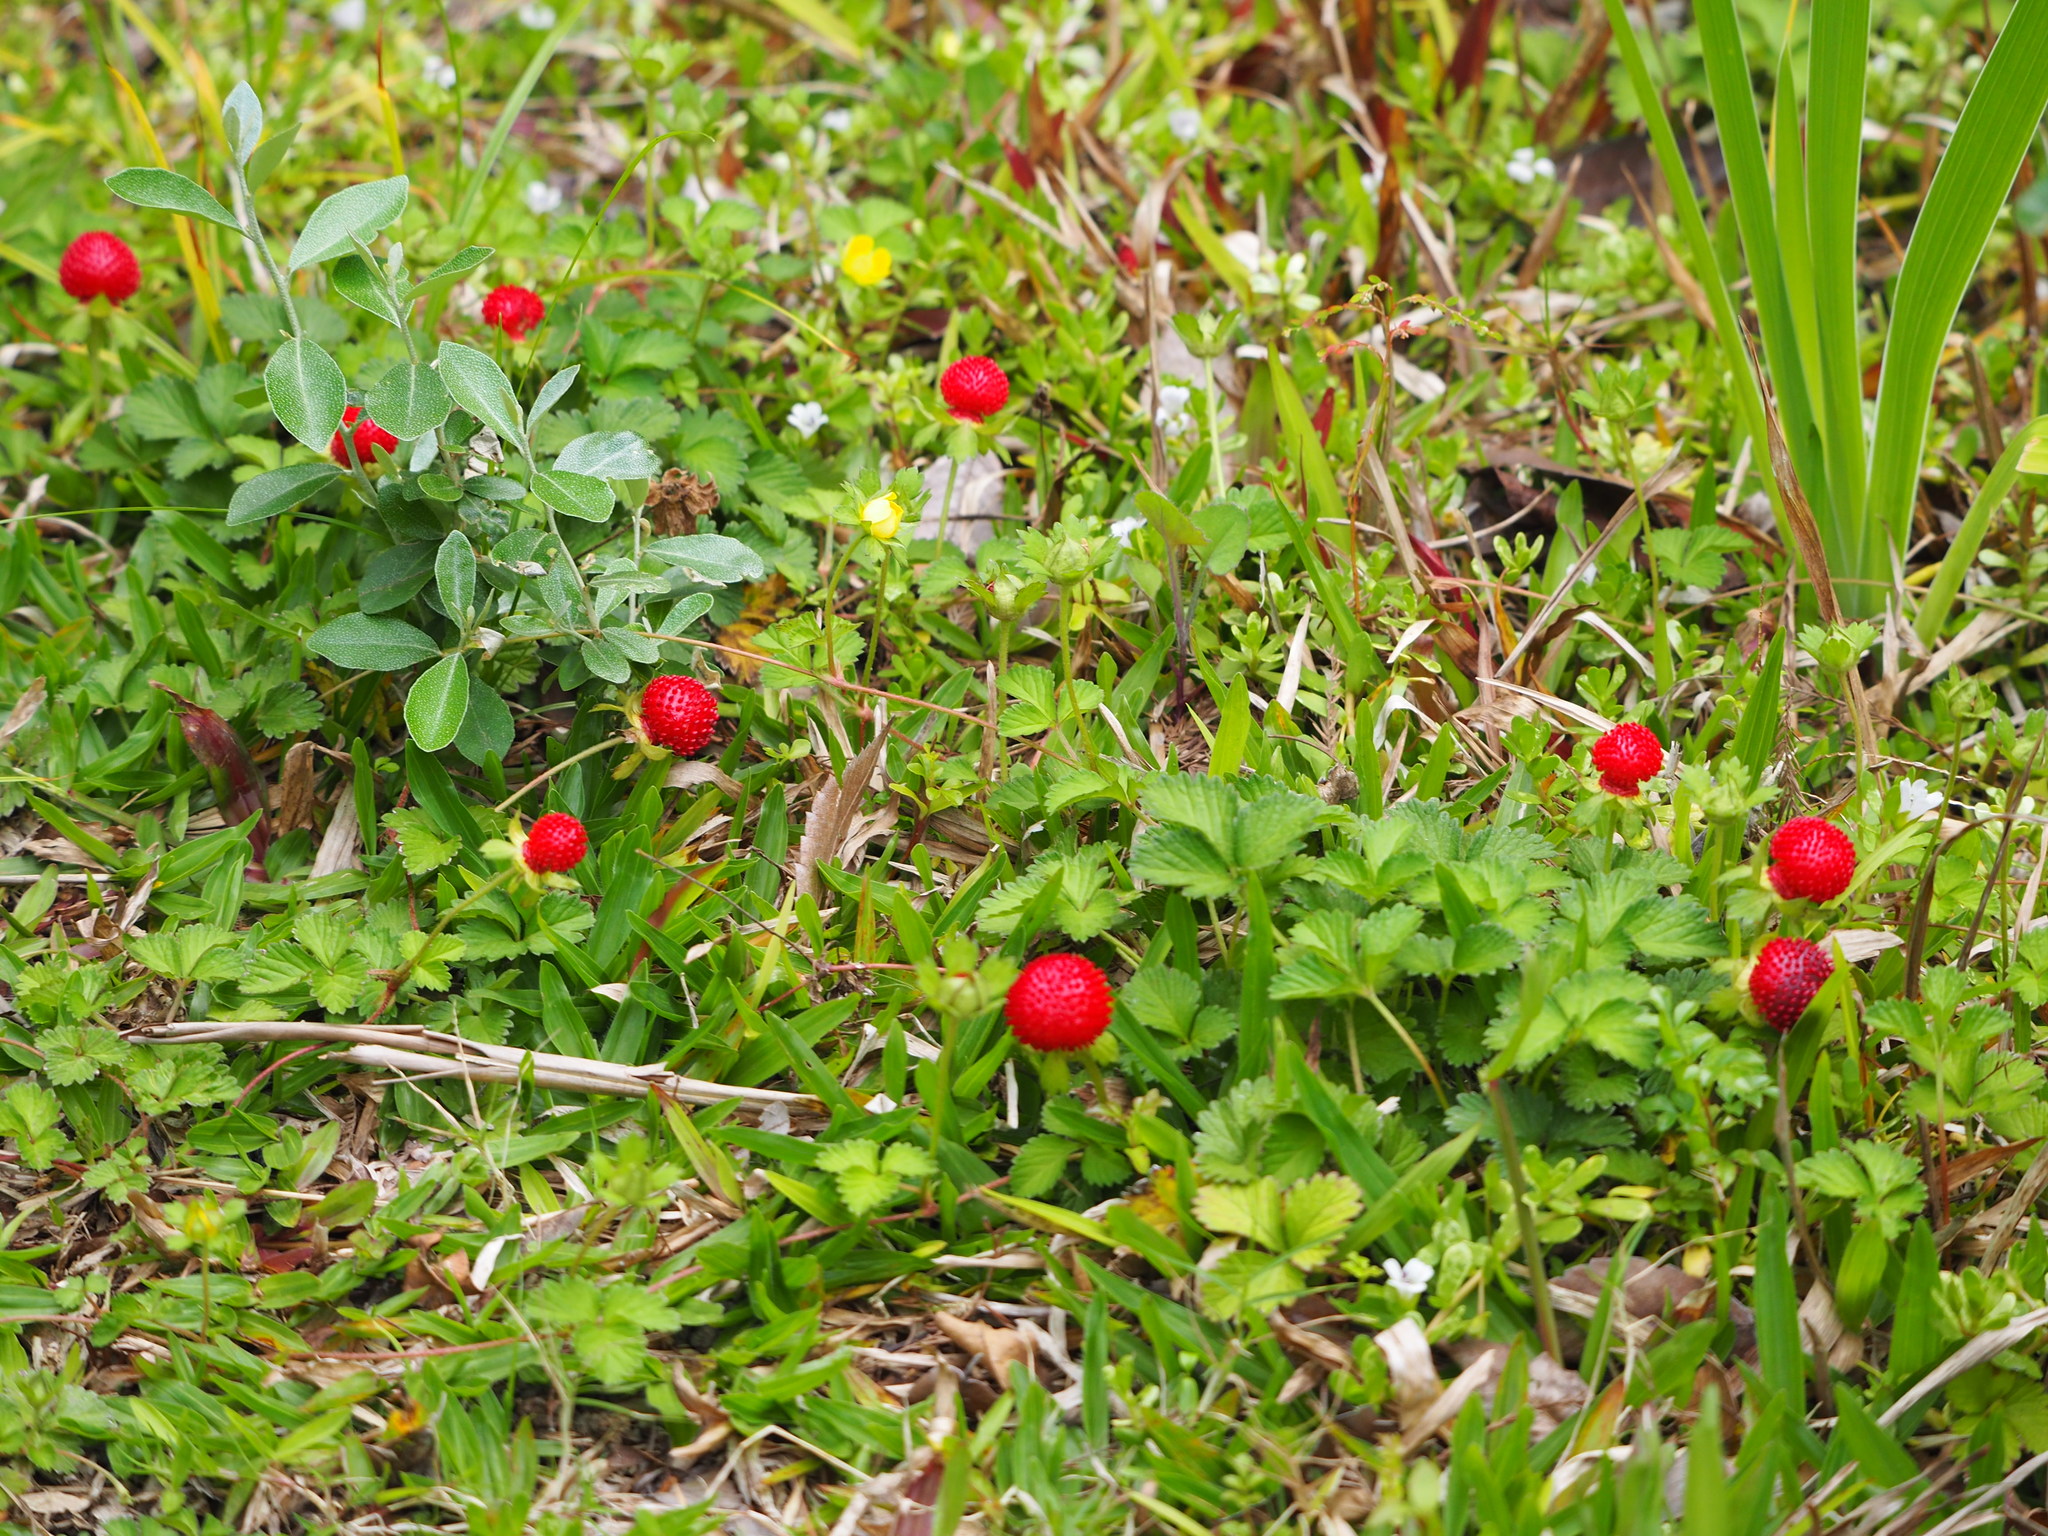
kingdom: Plantae
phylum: Tracheophyta
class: Magnoliopsida
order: Rosales
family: Rosaceae
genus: Potentilla
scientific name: Potentilla indica
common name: Yellow-flowered strawberry
